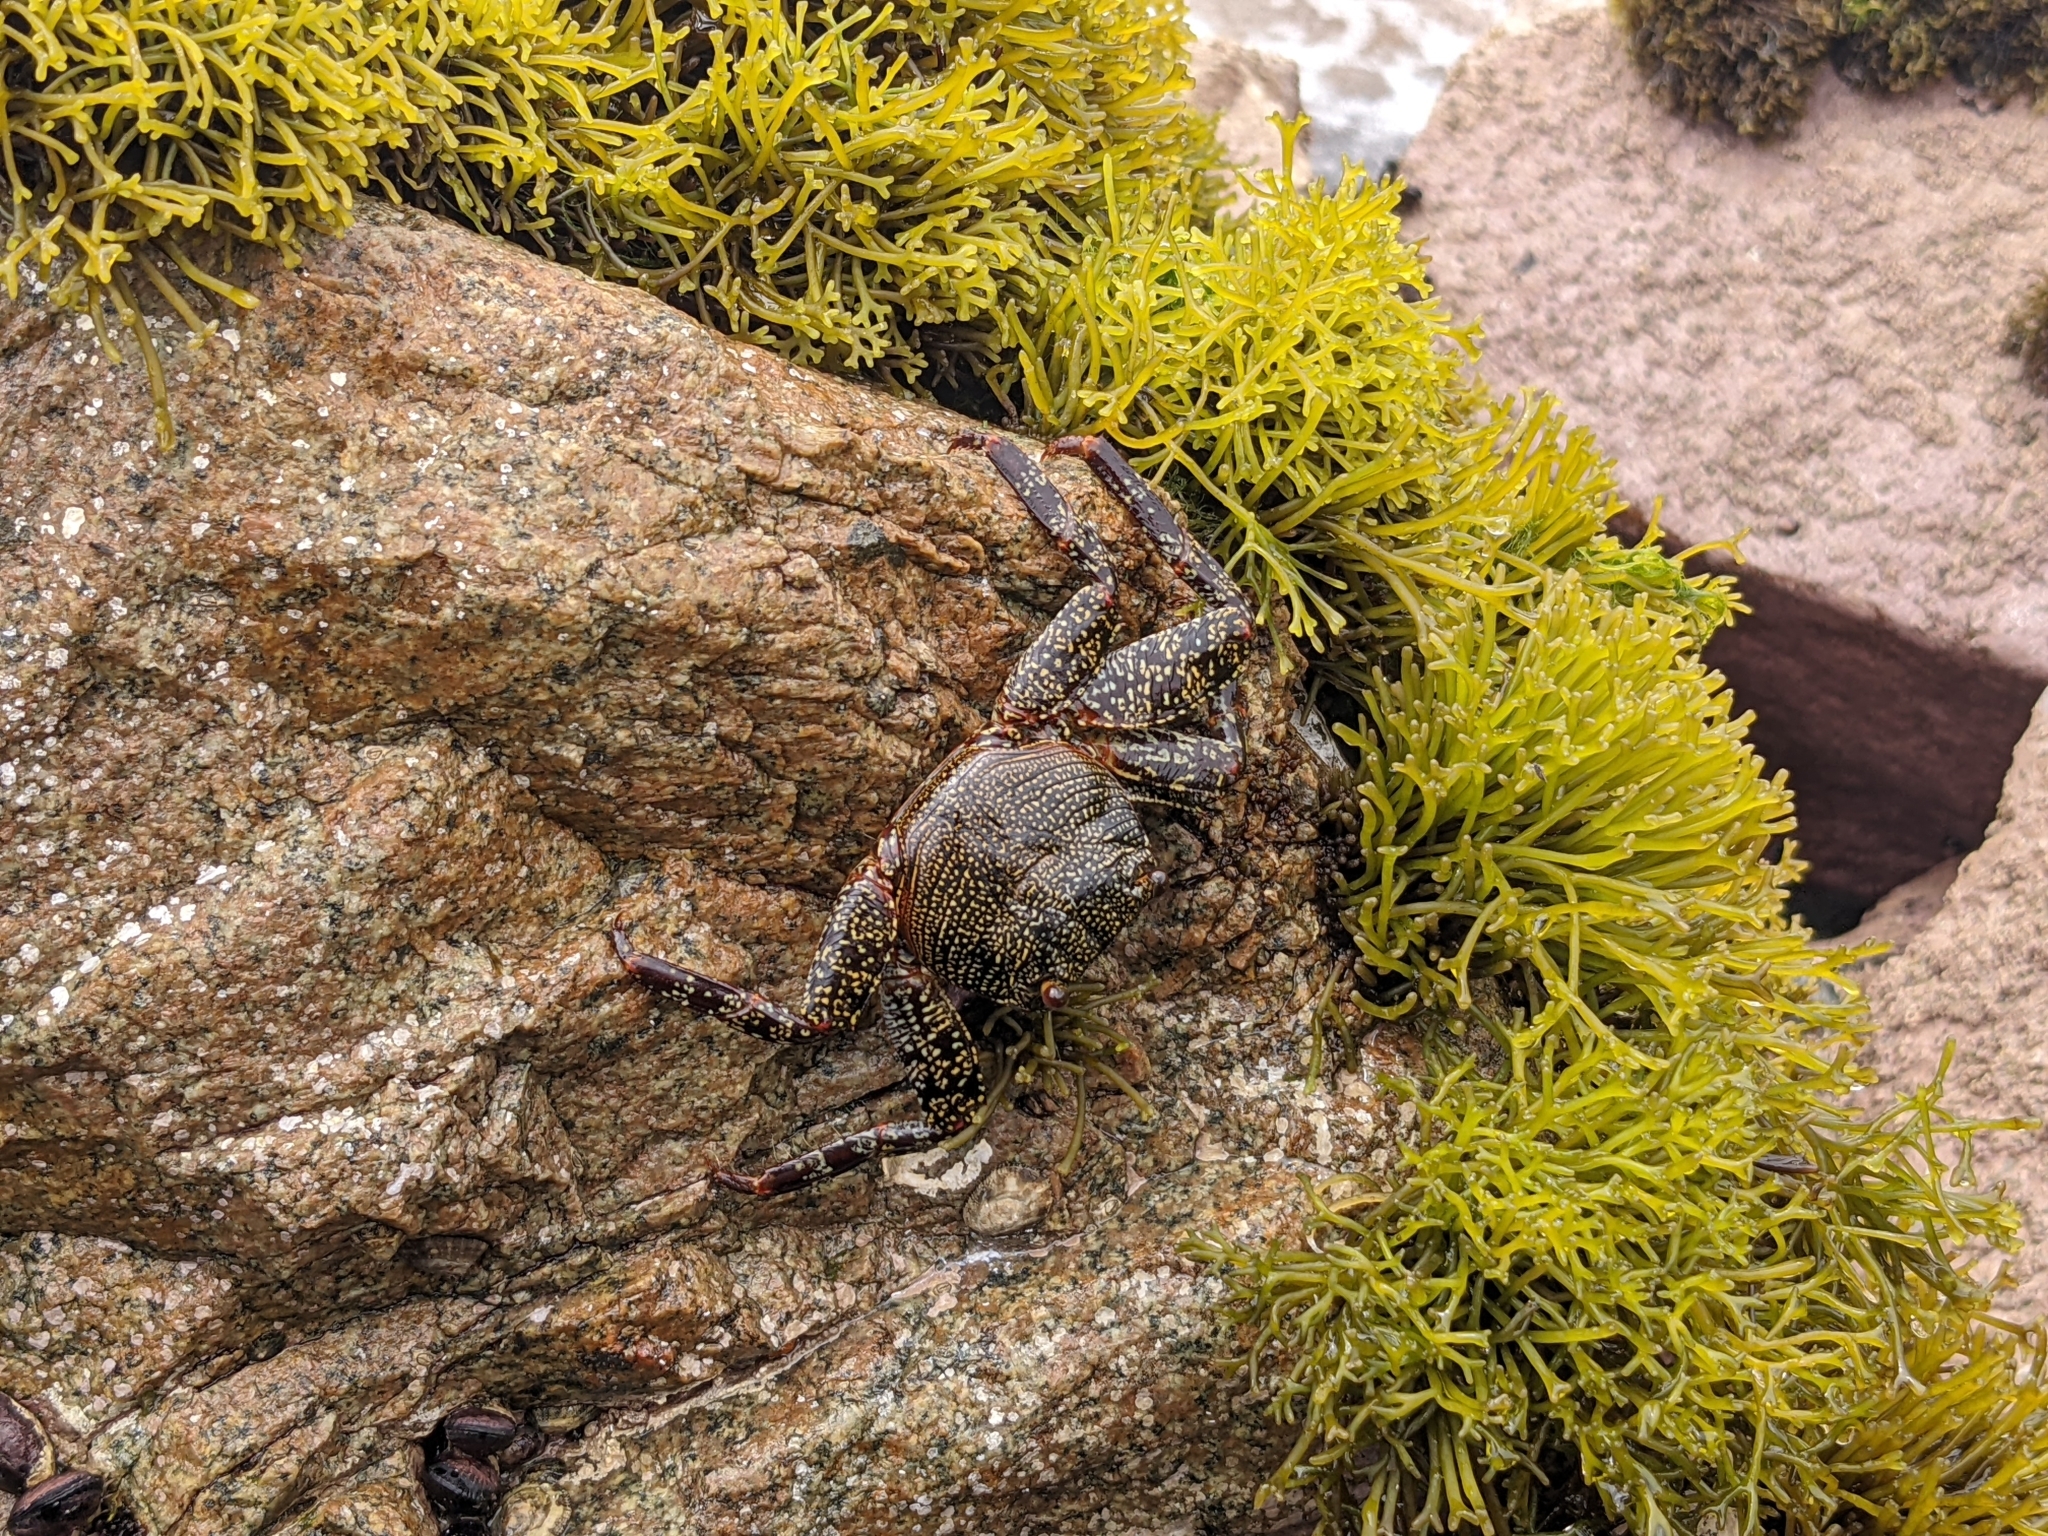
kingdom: Animalia
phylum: Arthropoda
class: Malacostraca
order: Decapoda
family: Grapsidae
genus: Grapsus
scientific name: Grapsus grapsus
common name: Sally lightfoot
